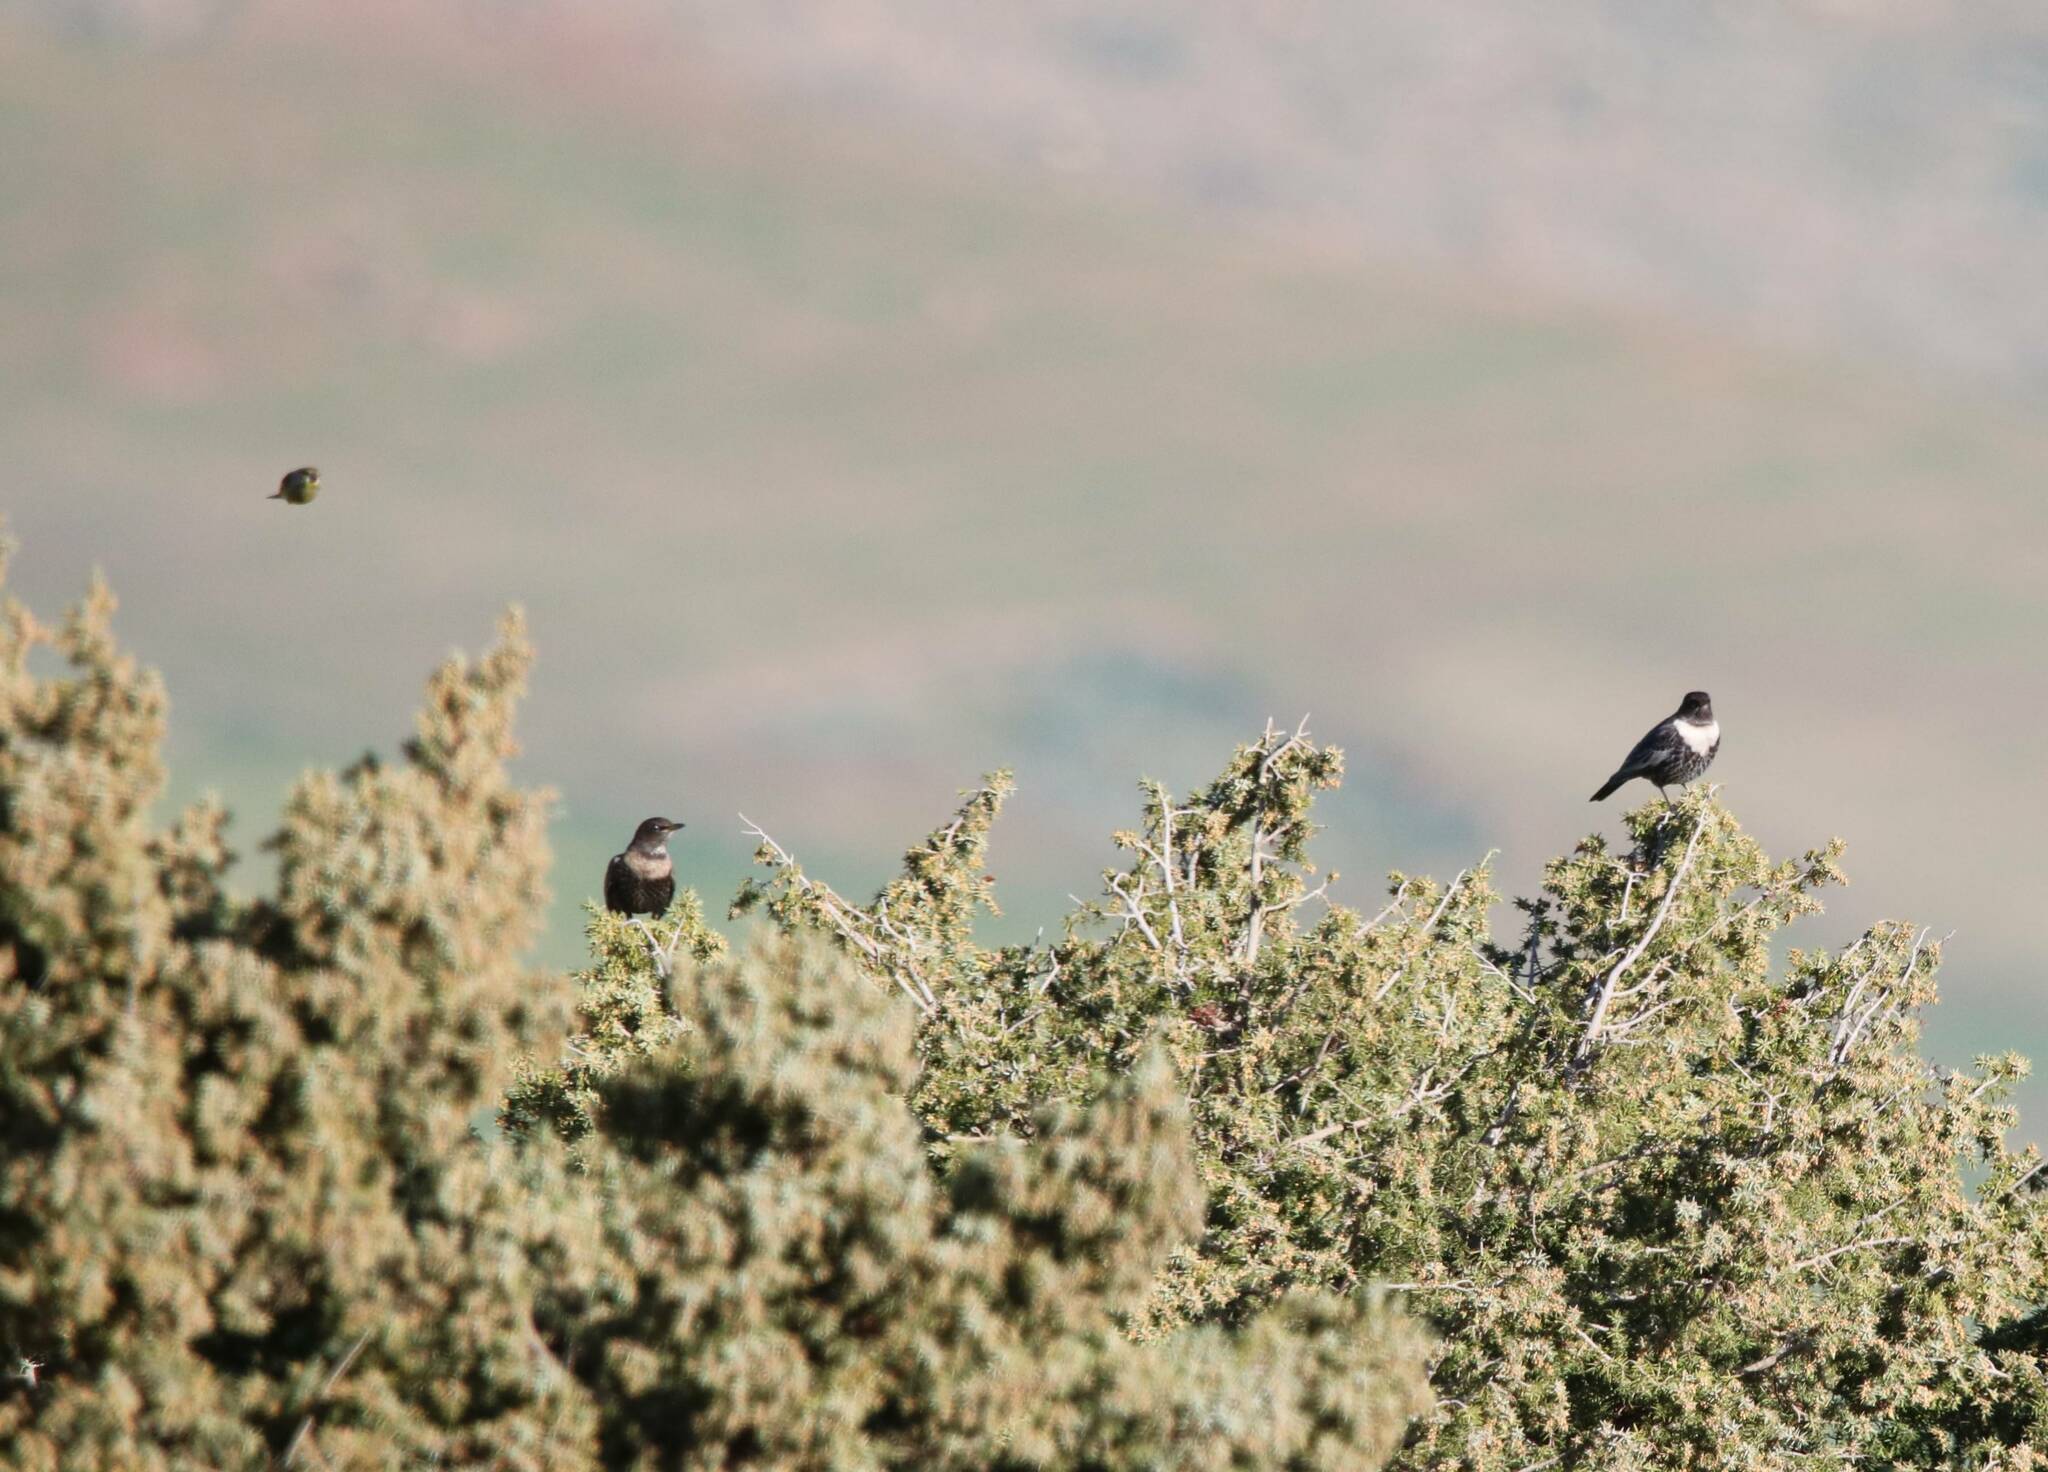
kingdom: Animalia
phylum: Chordata
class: Aves
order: Passeriformes
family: Turdidae
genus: Turdus
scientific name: Turdus torquatus
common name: Ring ouzel
